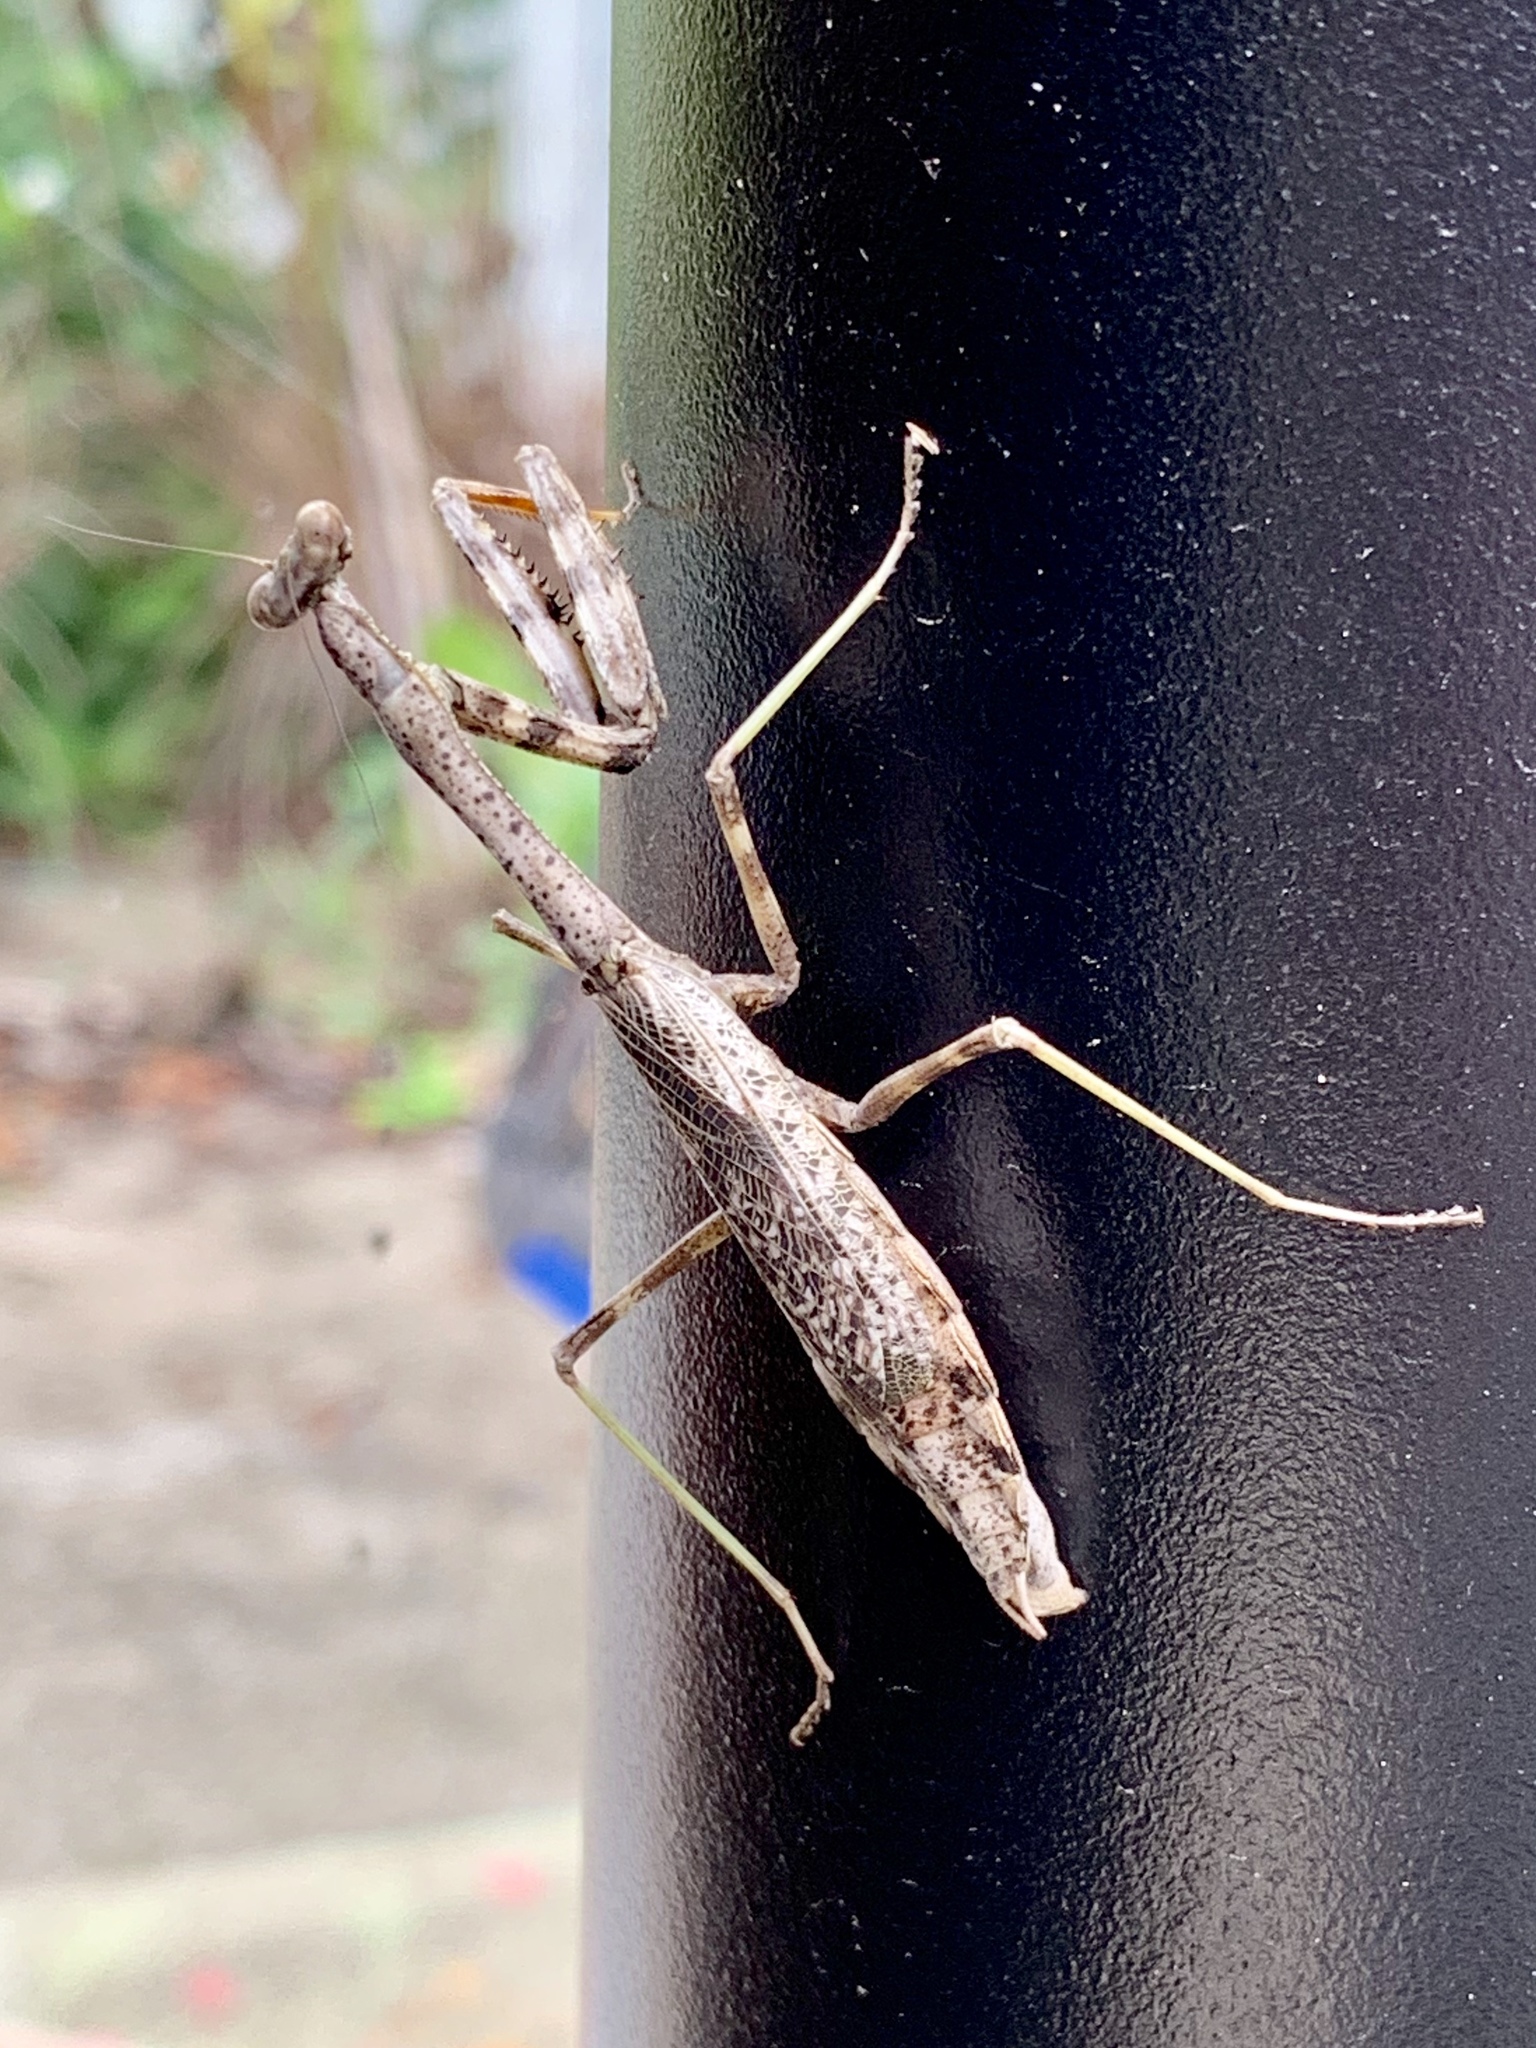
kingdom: Animalia
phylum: Arthropoda
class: Insecta
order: Mantodea
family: Mantidae
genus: Stagmomantis
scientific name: Stagmomantis carolina
